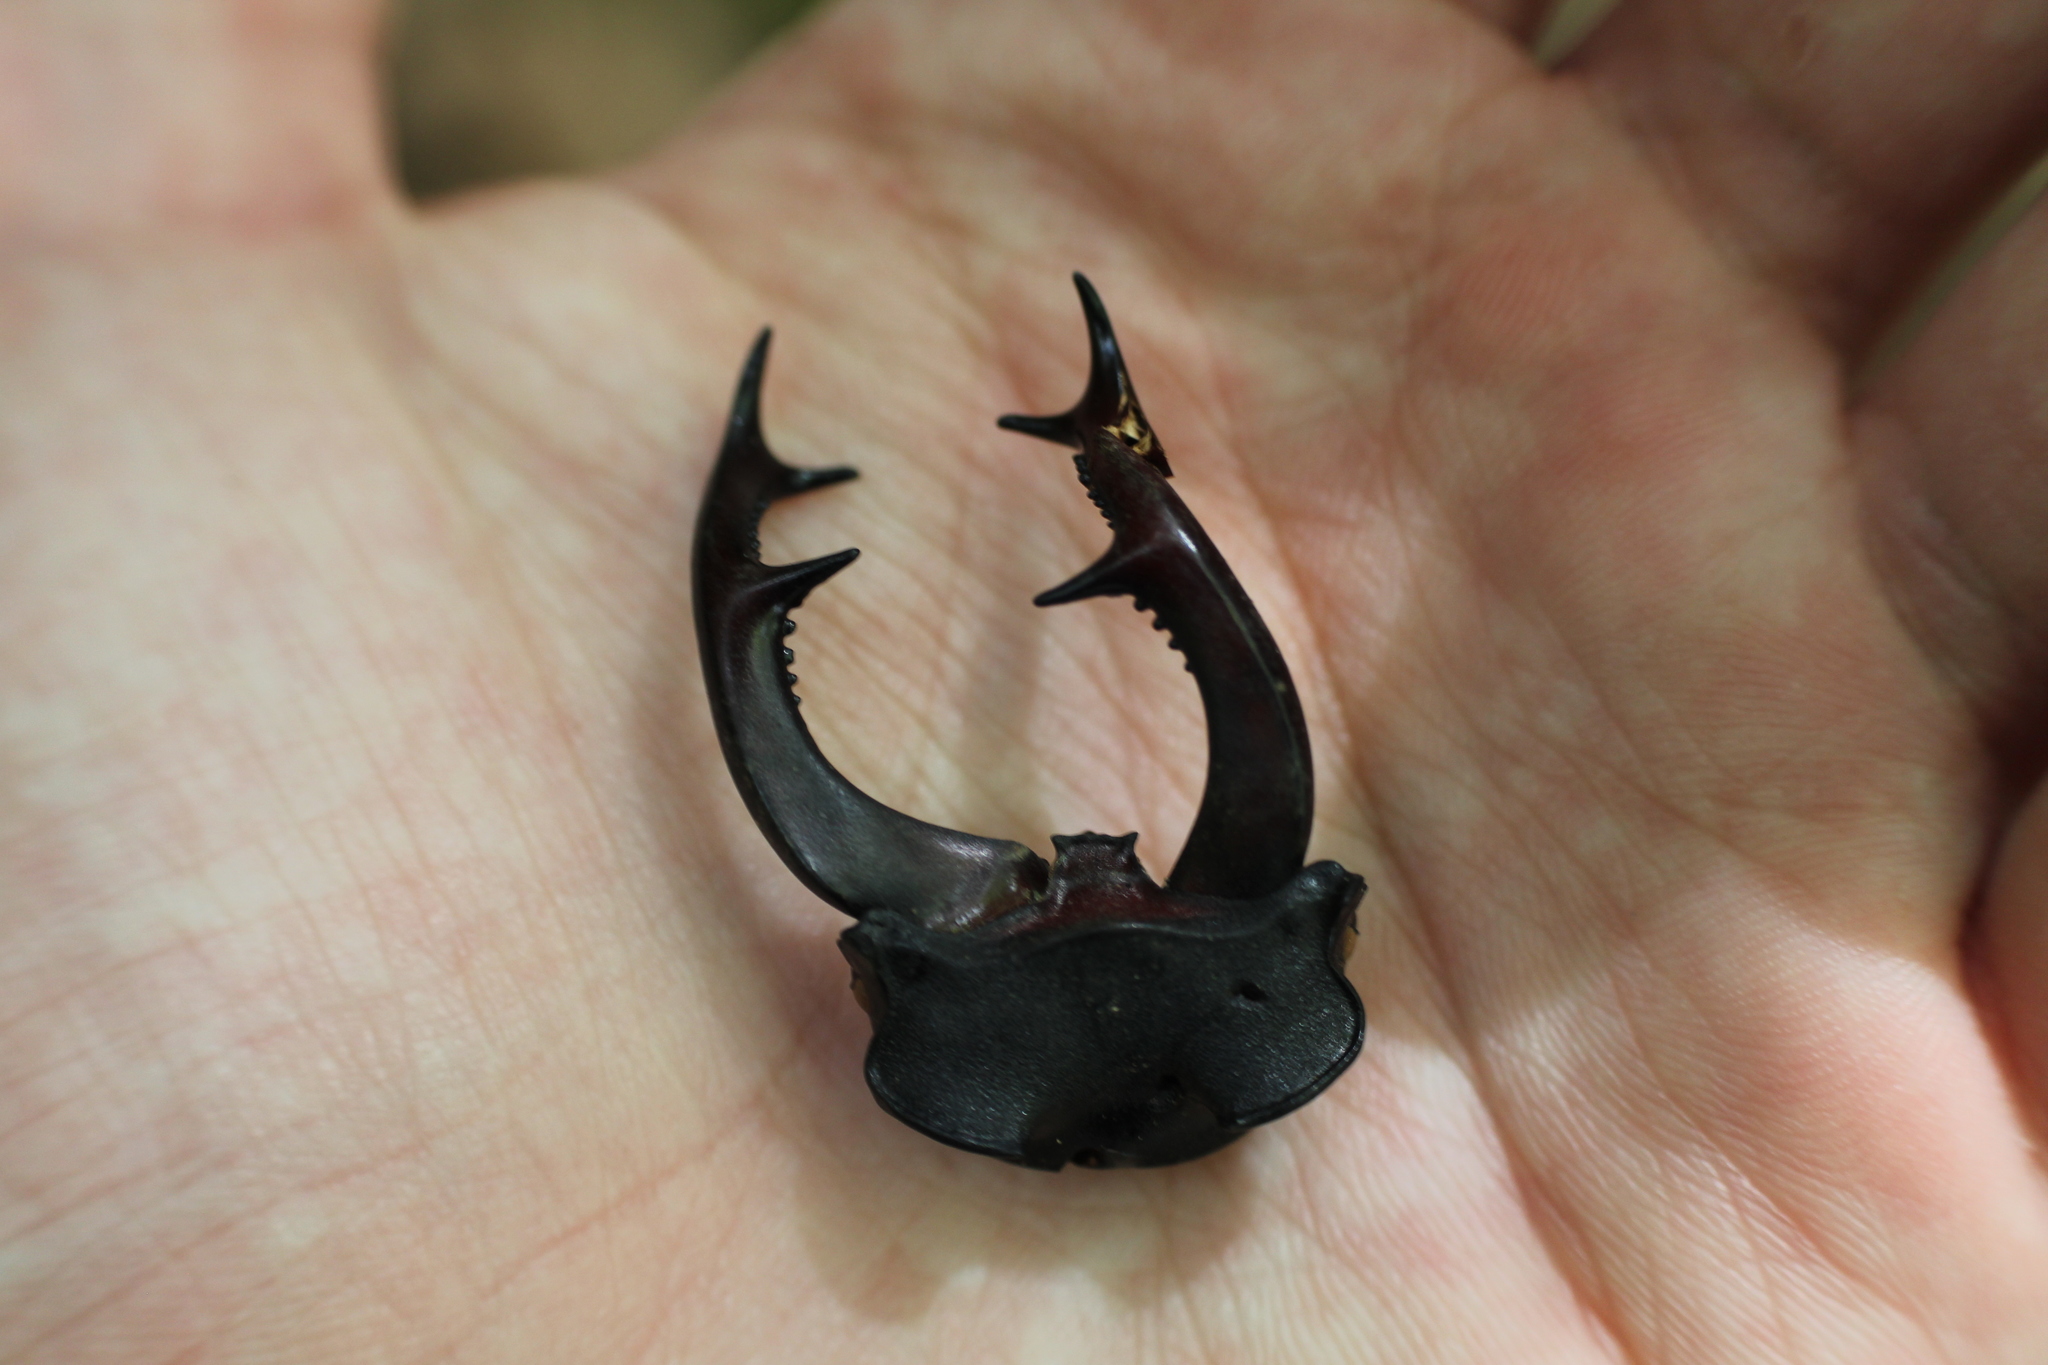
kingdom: Animalia
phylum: Arthropoda
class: Insecta
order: Coleoptera
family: Lucanidae
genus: Lucanus
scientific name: Lucanus cervus
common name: Stag beetle
